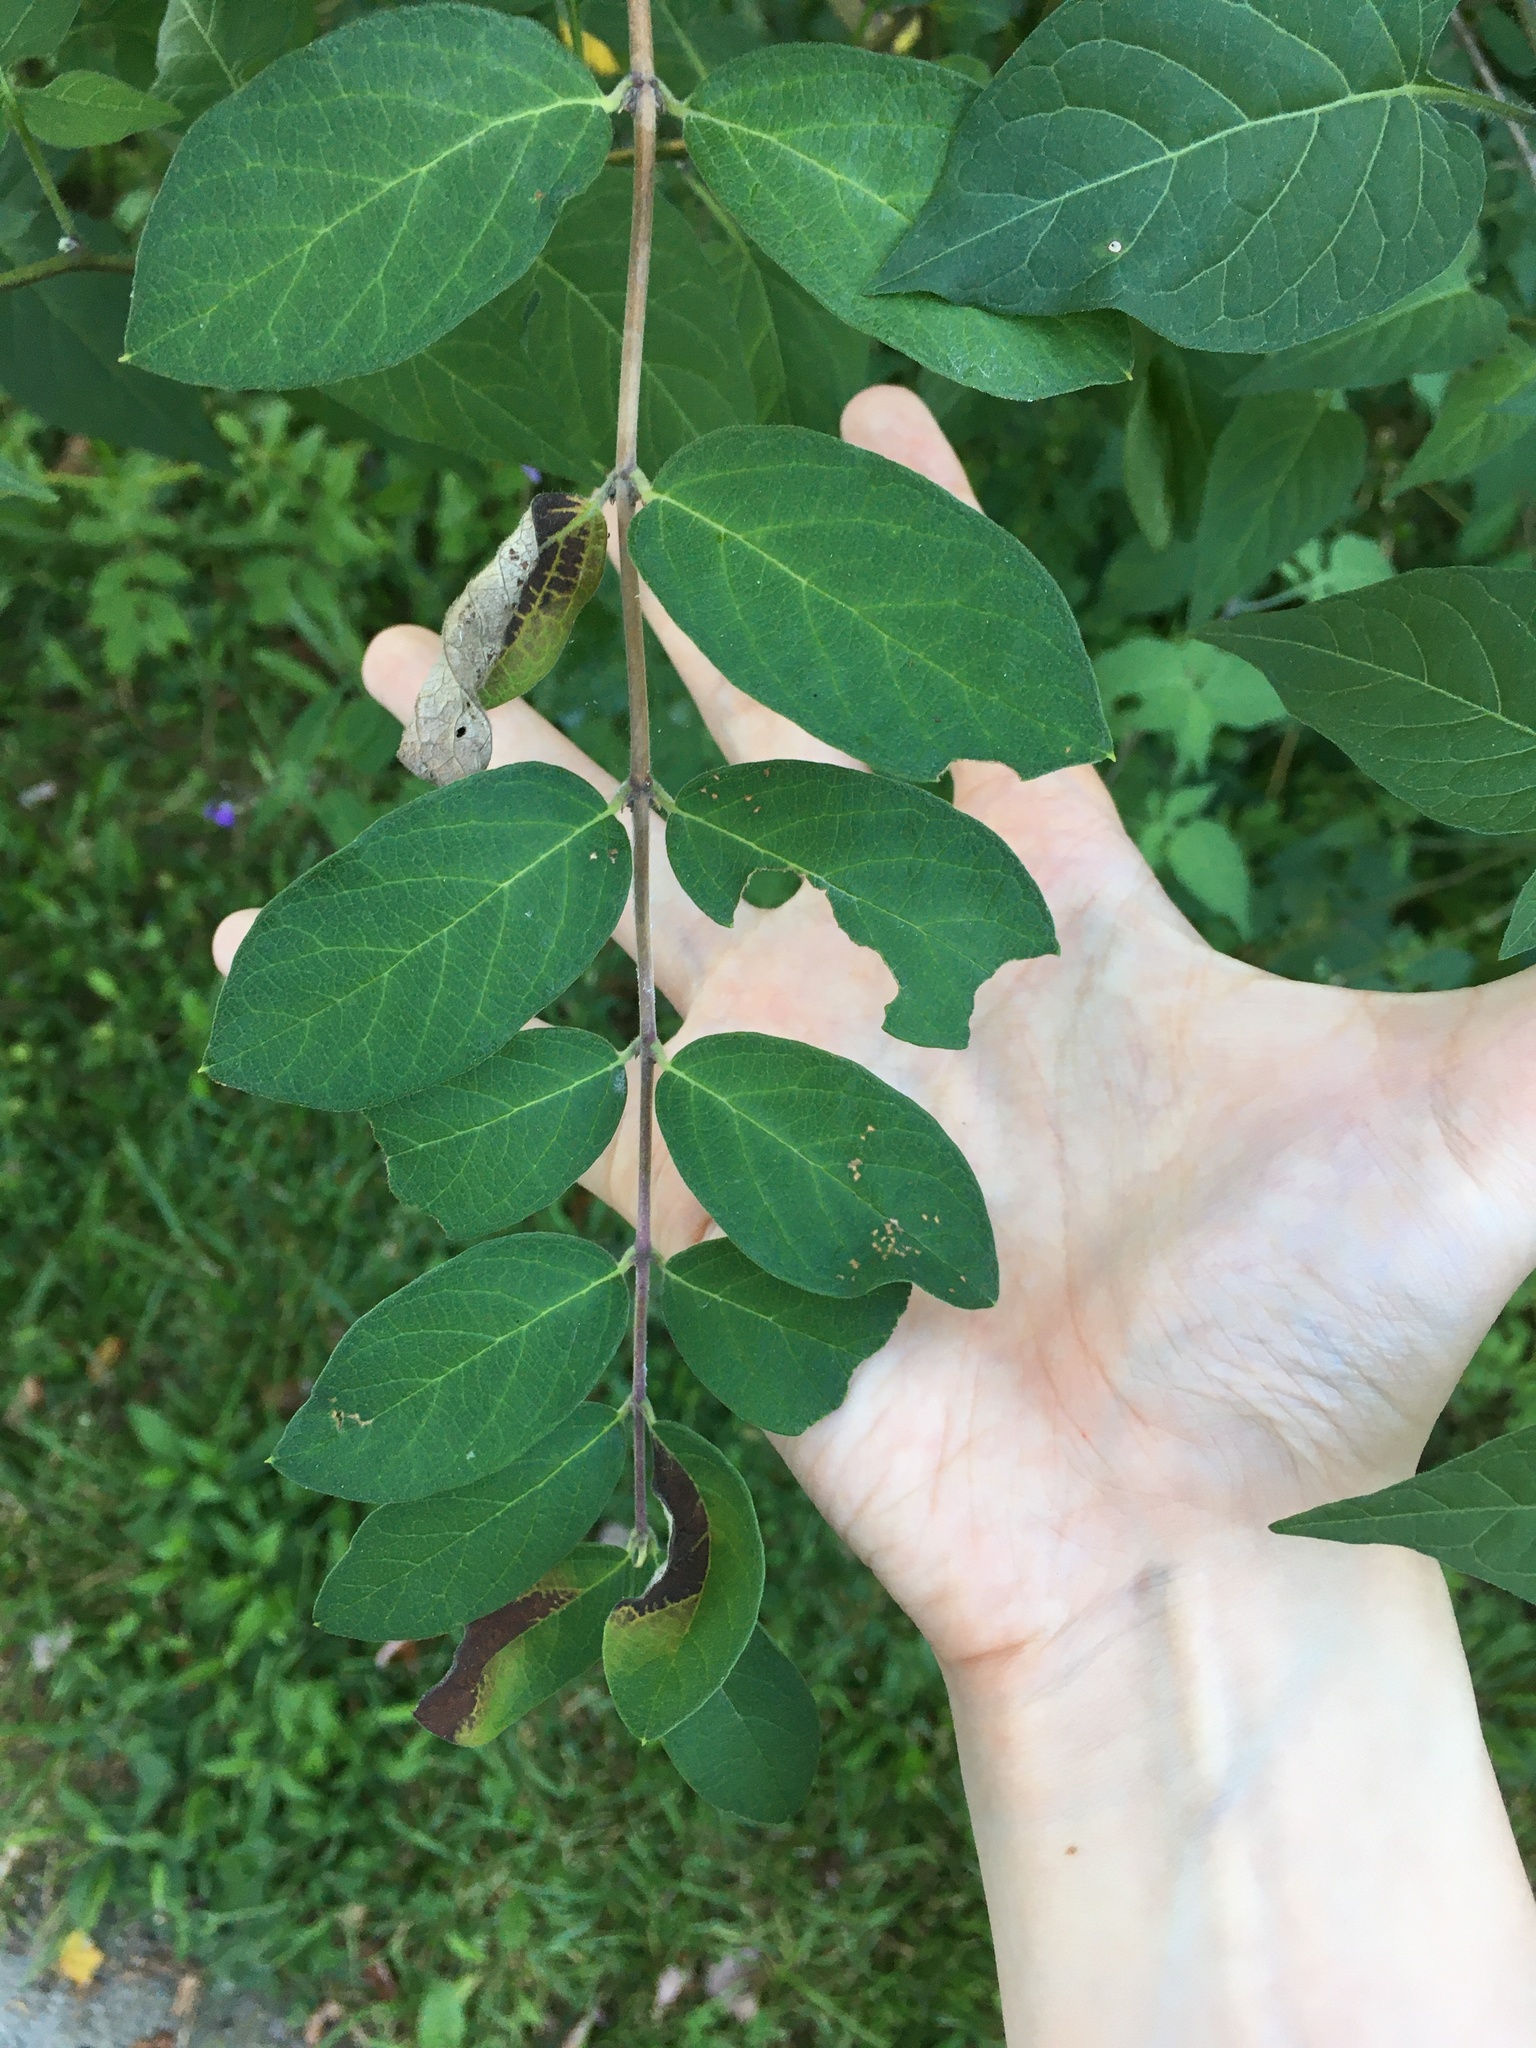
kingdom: Plantae
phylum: Tracheophyta
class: Magnoliopsida
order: Solanales
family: Solanaceae
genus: Solanum
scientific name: Solanum dulcamara
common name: Climbing nightshade
